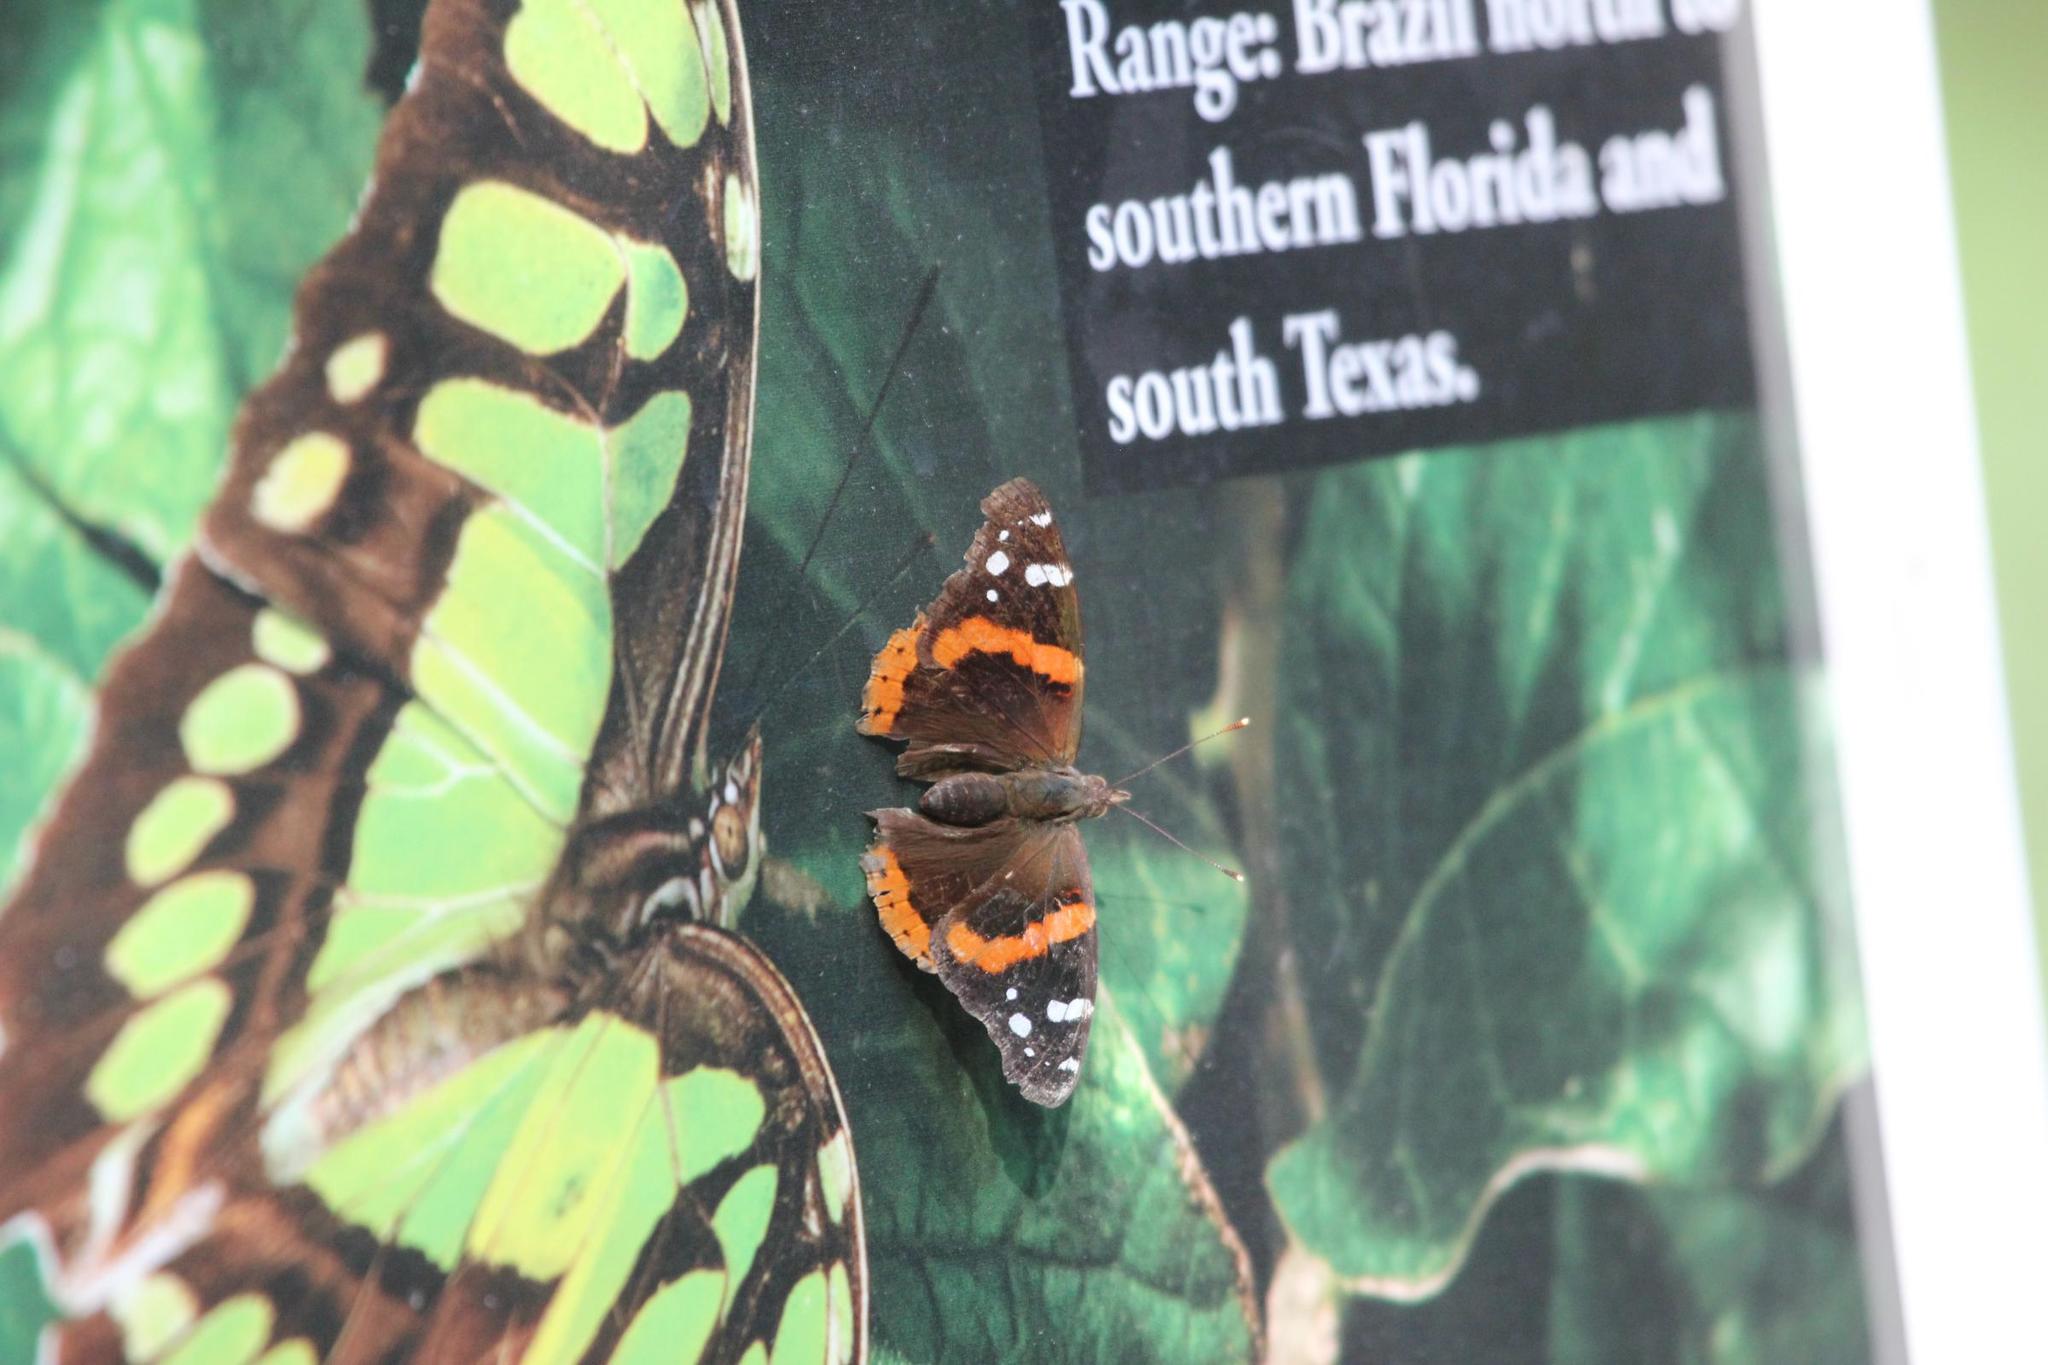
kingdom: Animalia
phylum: Arthropoda
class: Insecta
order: Lepidoptera
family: Nymphalidae
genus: Vanessa
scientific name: Vanessa atalanta
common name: Red admiral
